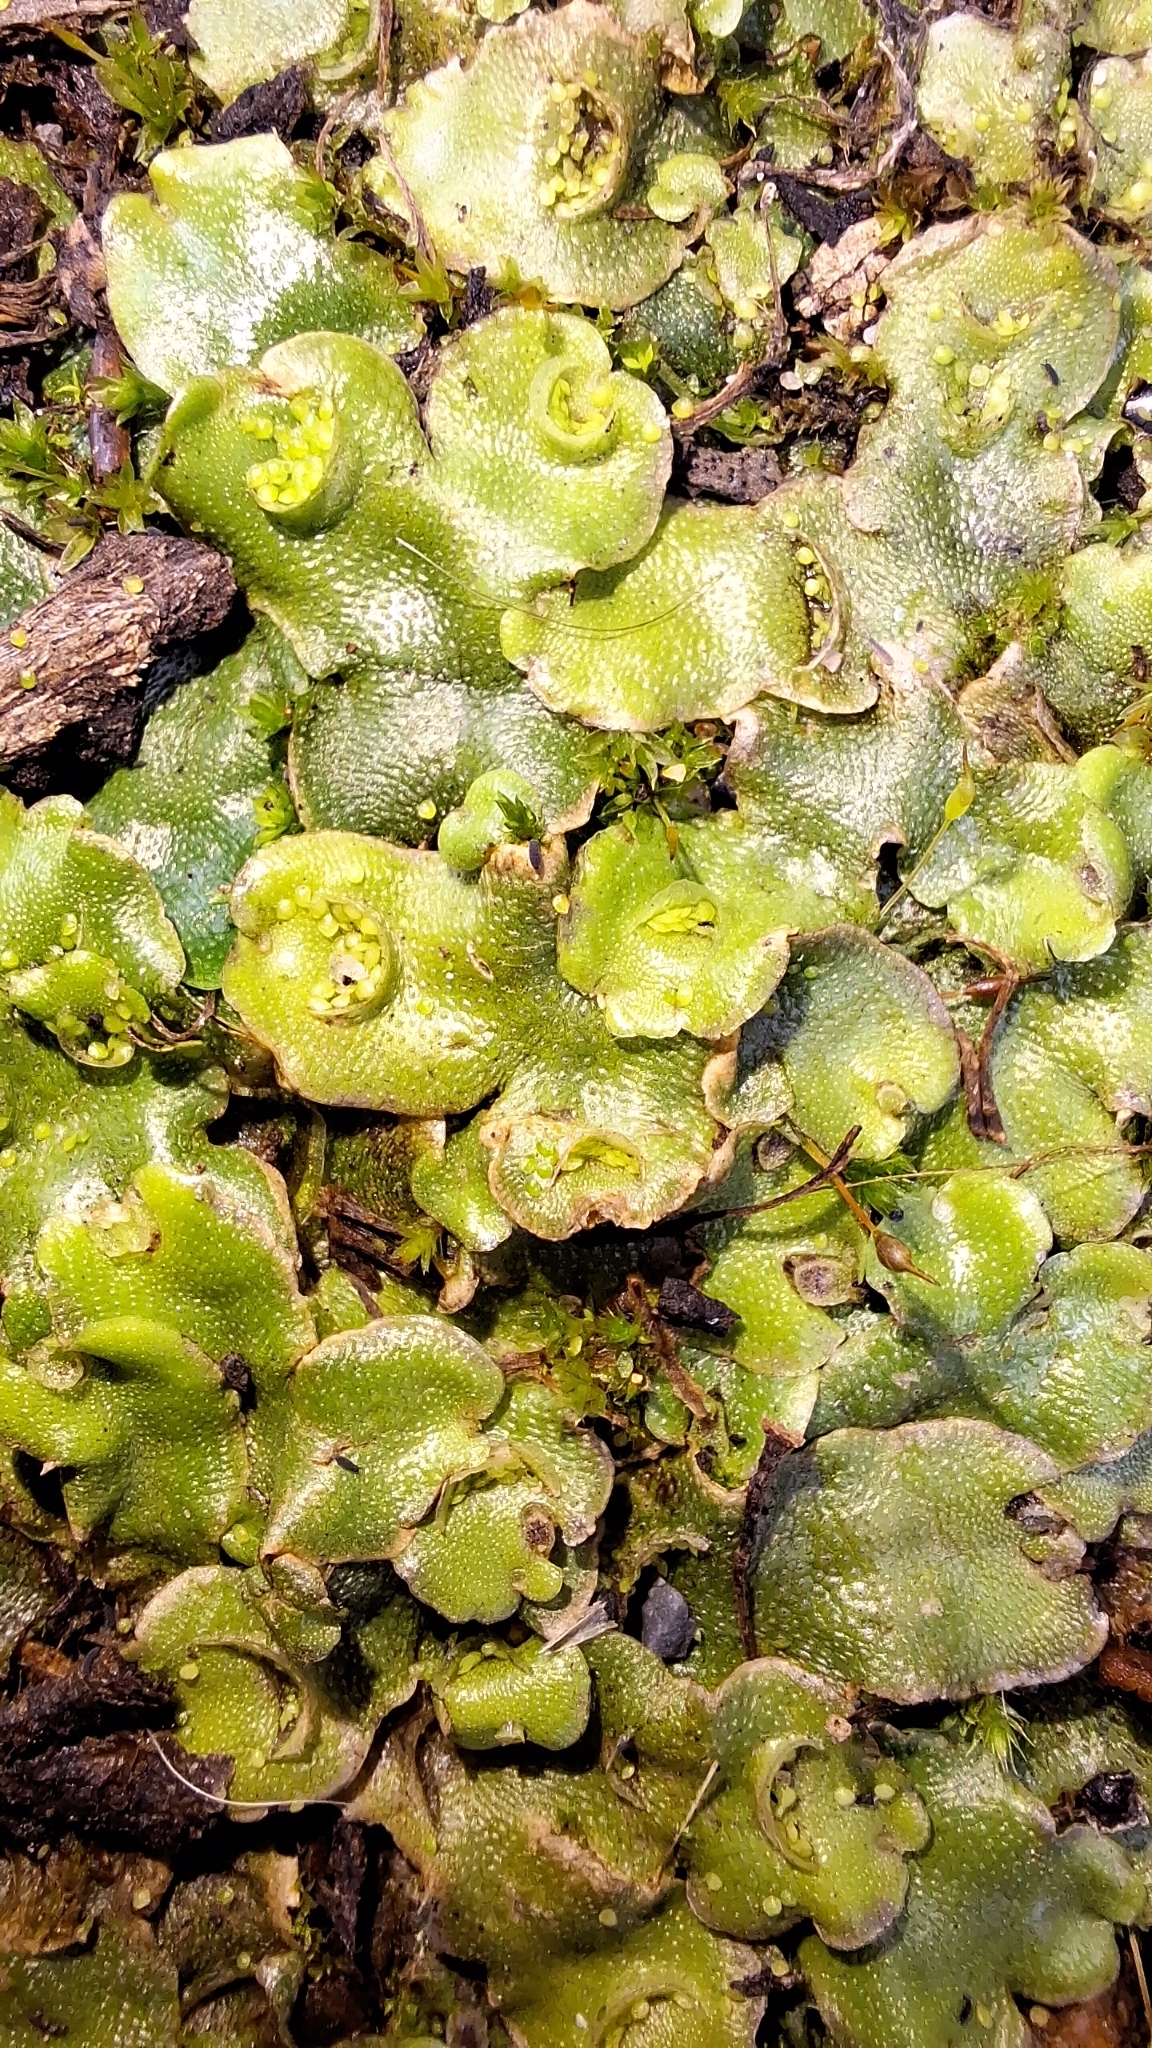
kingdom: Plantae
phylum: Marchantiophyta
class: Marchantiopsida
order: Lunulariales
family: Lunulariaceae
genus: Lunularia
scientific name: Lunularia cruciata
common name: Crescent-cup liverwort
